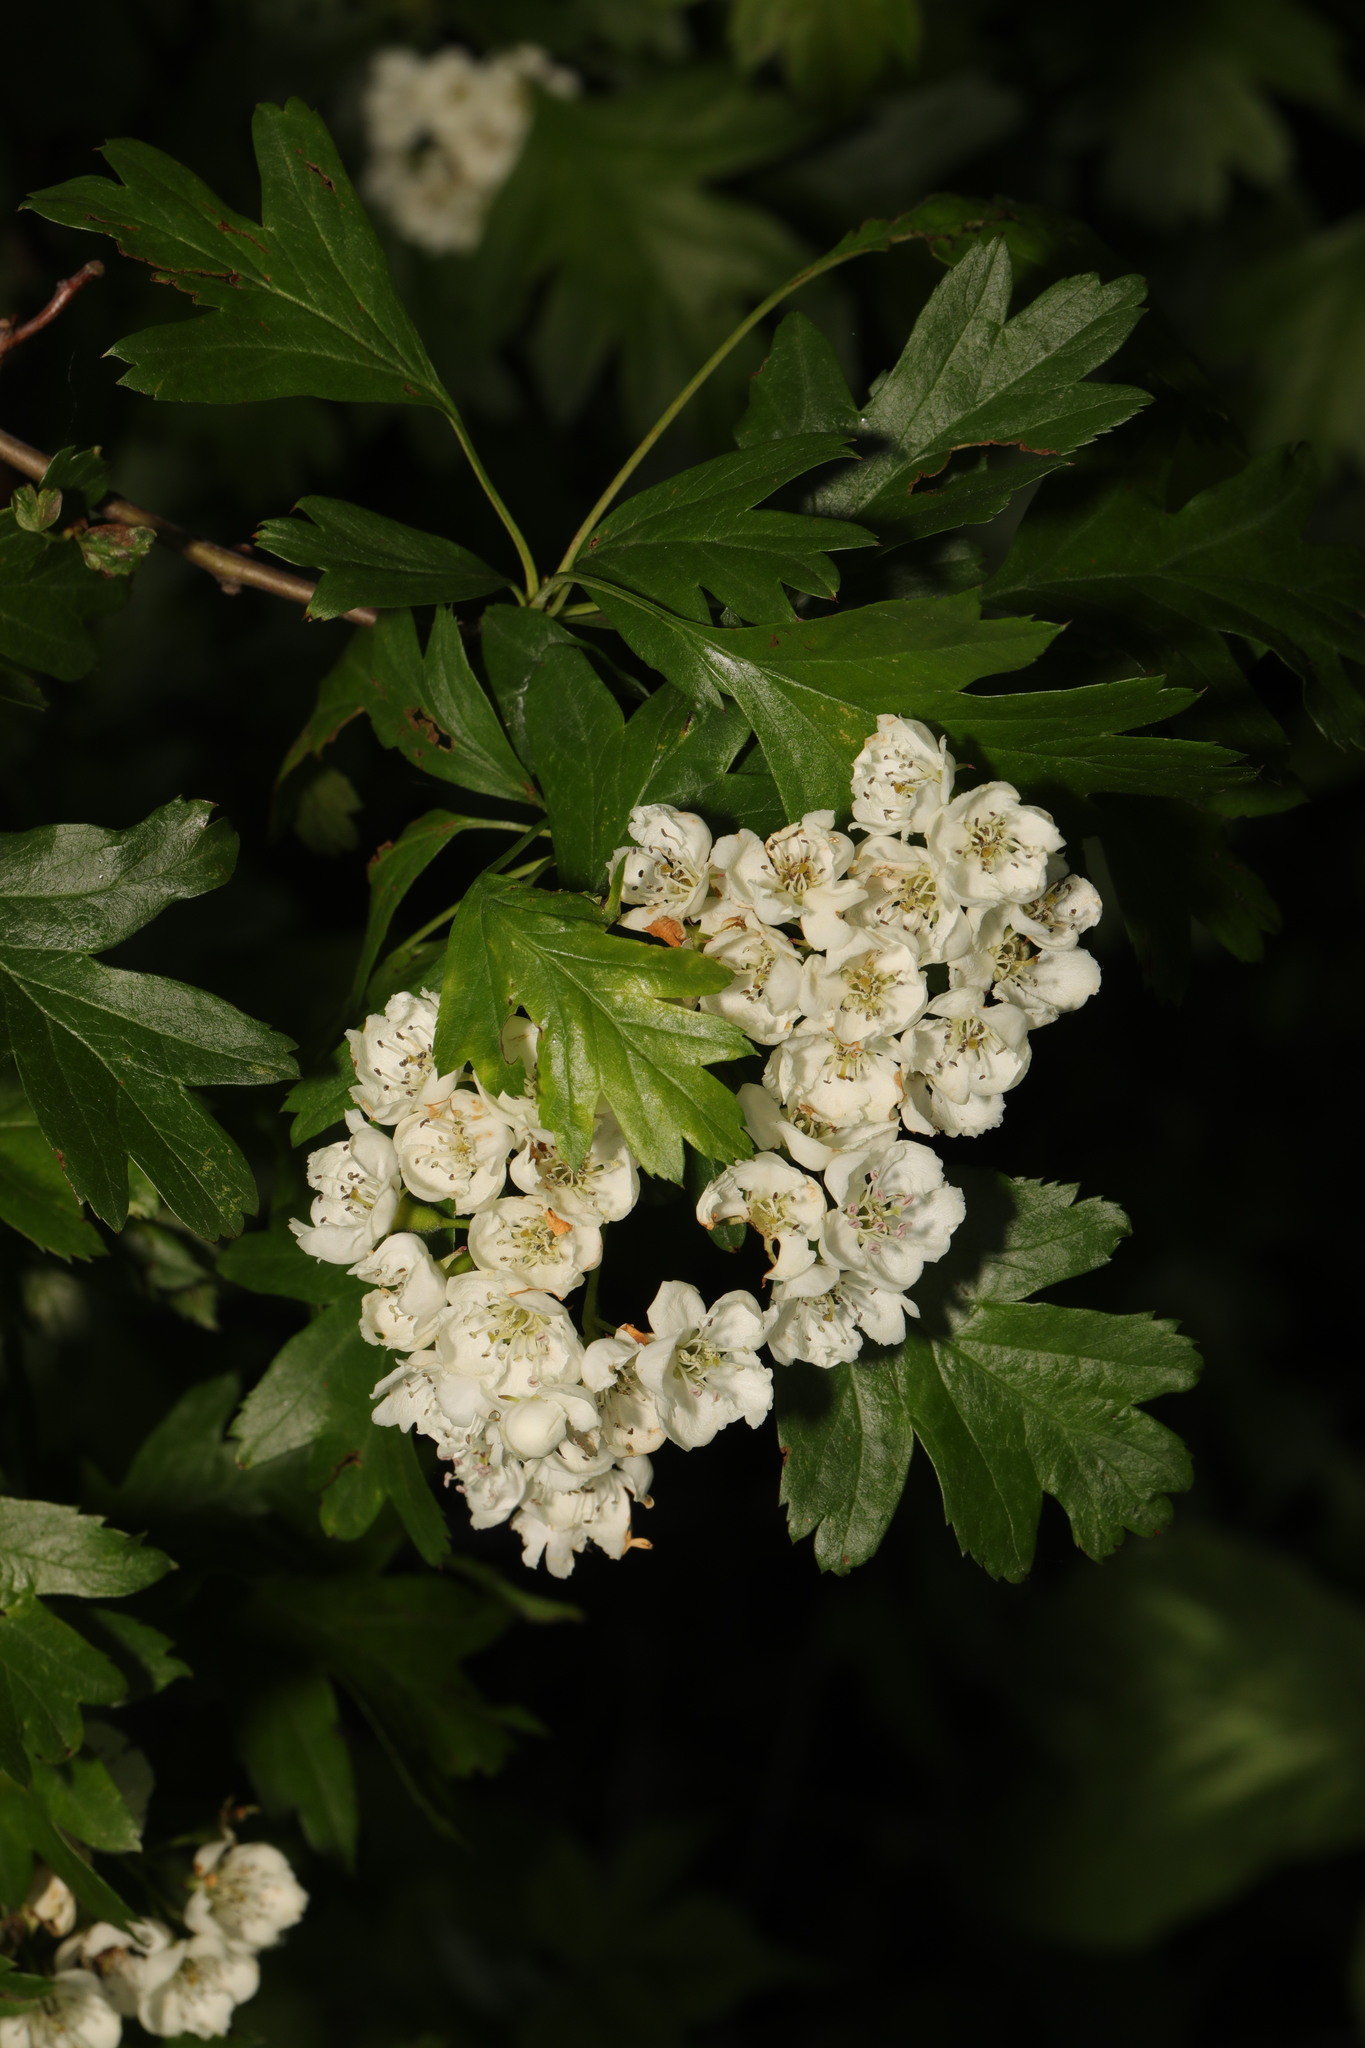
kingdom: Plantae
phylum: Tracheophyta
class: Magnoliopsida
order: Rosales
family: Rosaceae
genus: Crataegus
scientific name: Crataegus monogyna
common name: Hawthorn
